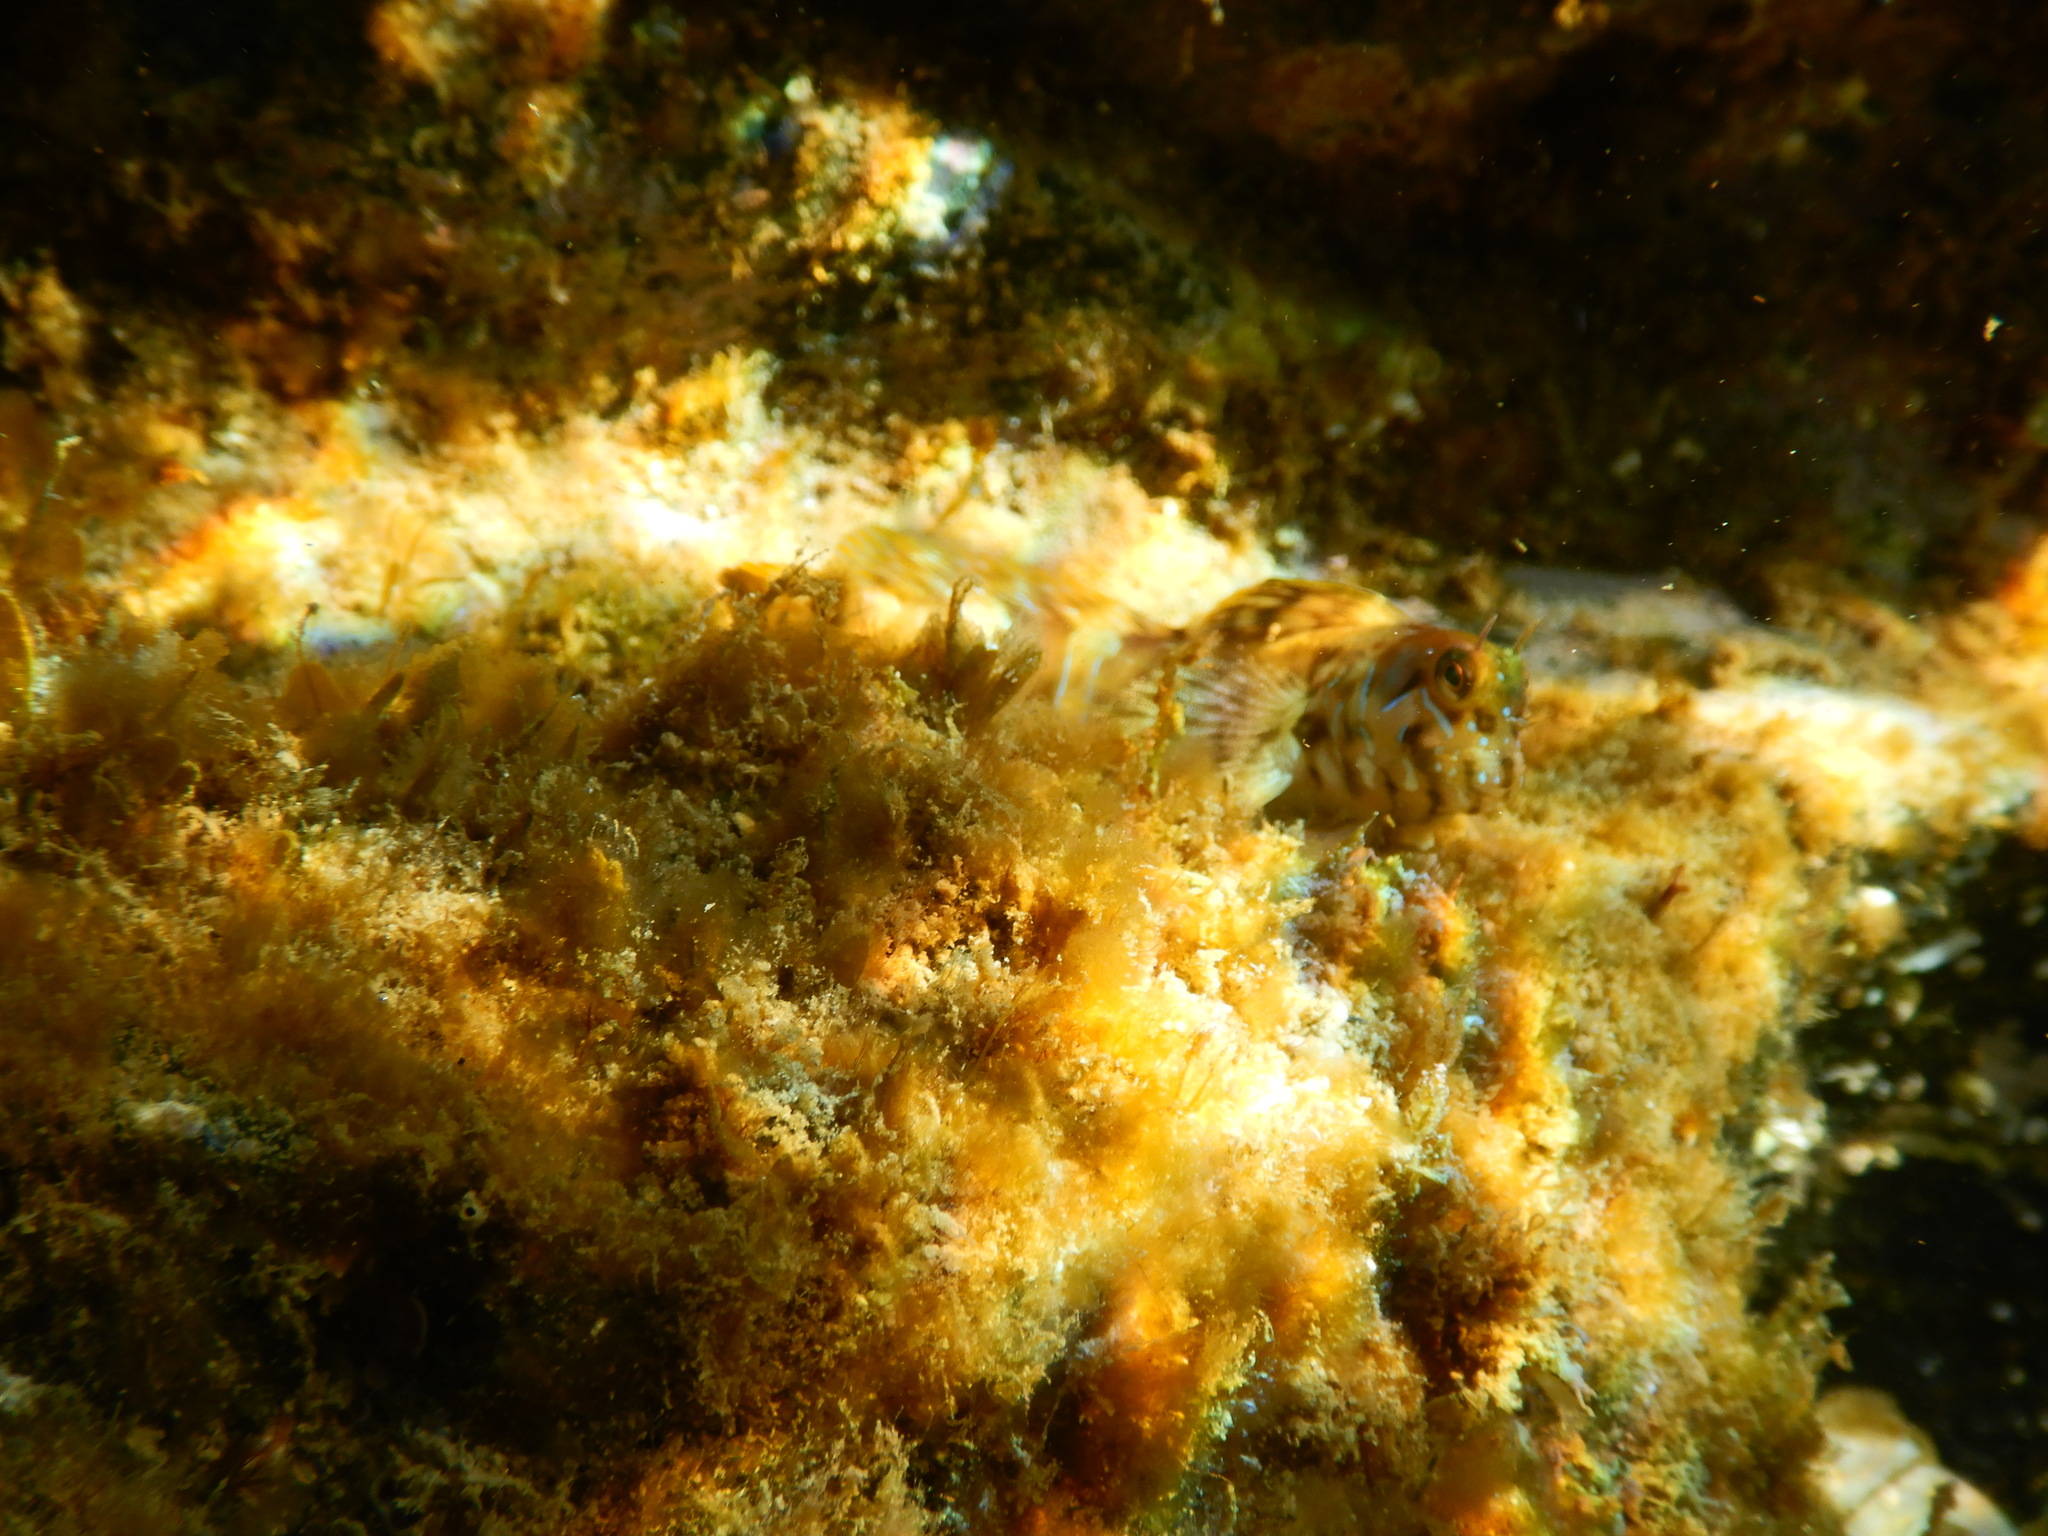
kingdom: Animalia
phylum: Chordata
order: Perciformes
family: Blenniidae
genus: Aidablennius
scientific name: Aidablennius sphynx
